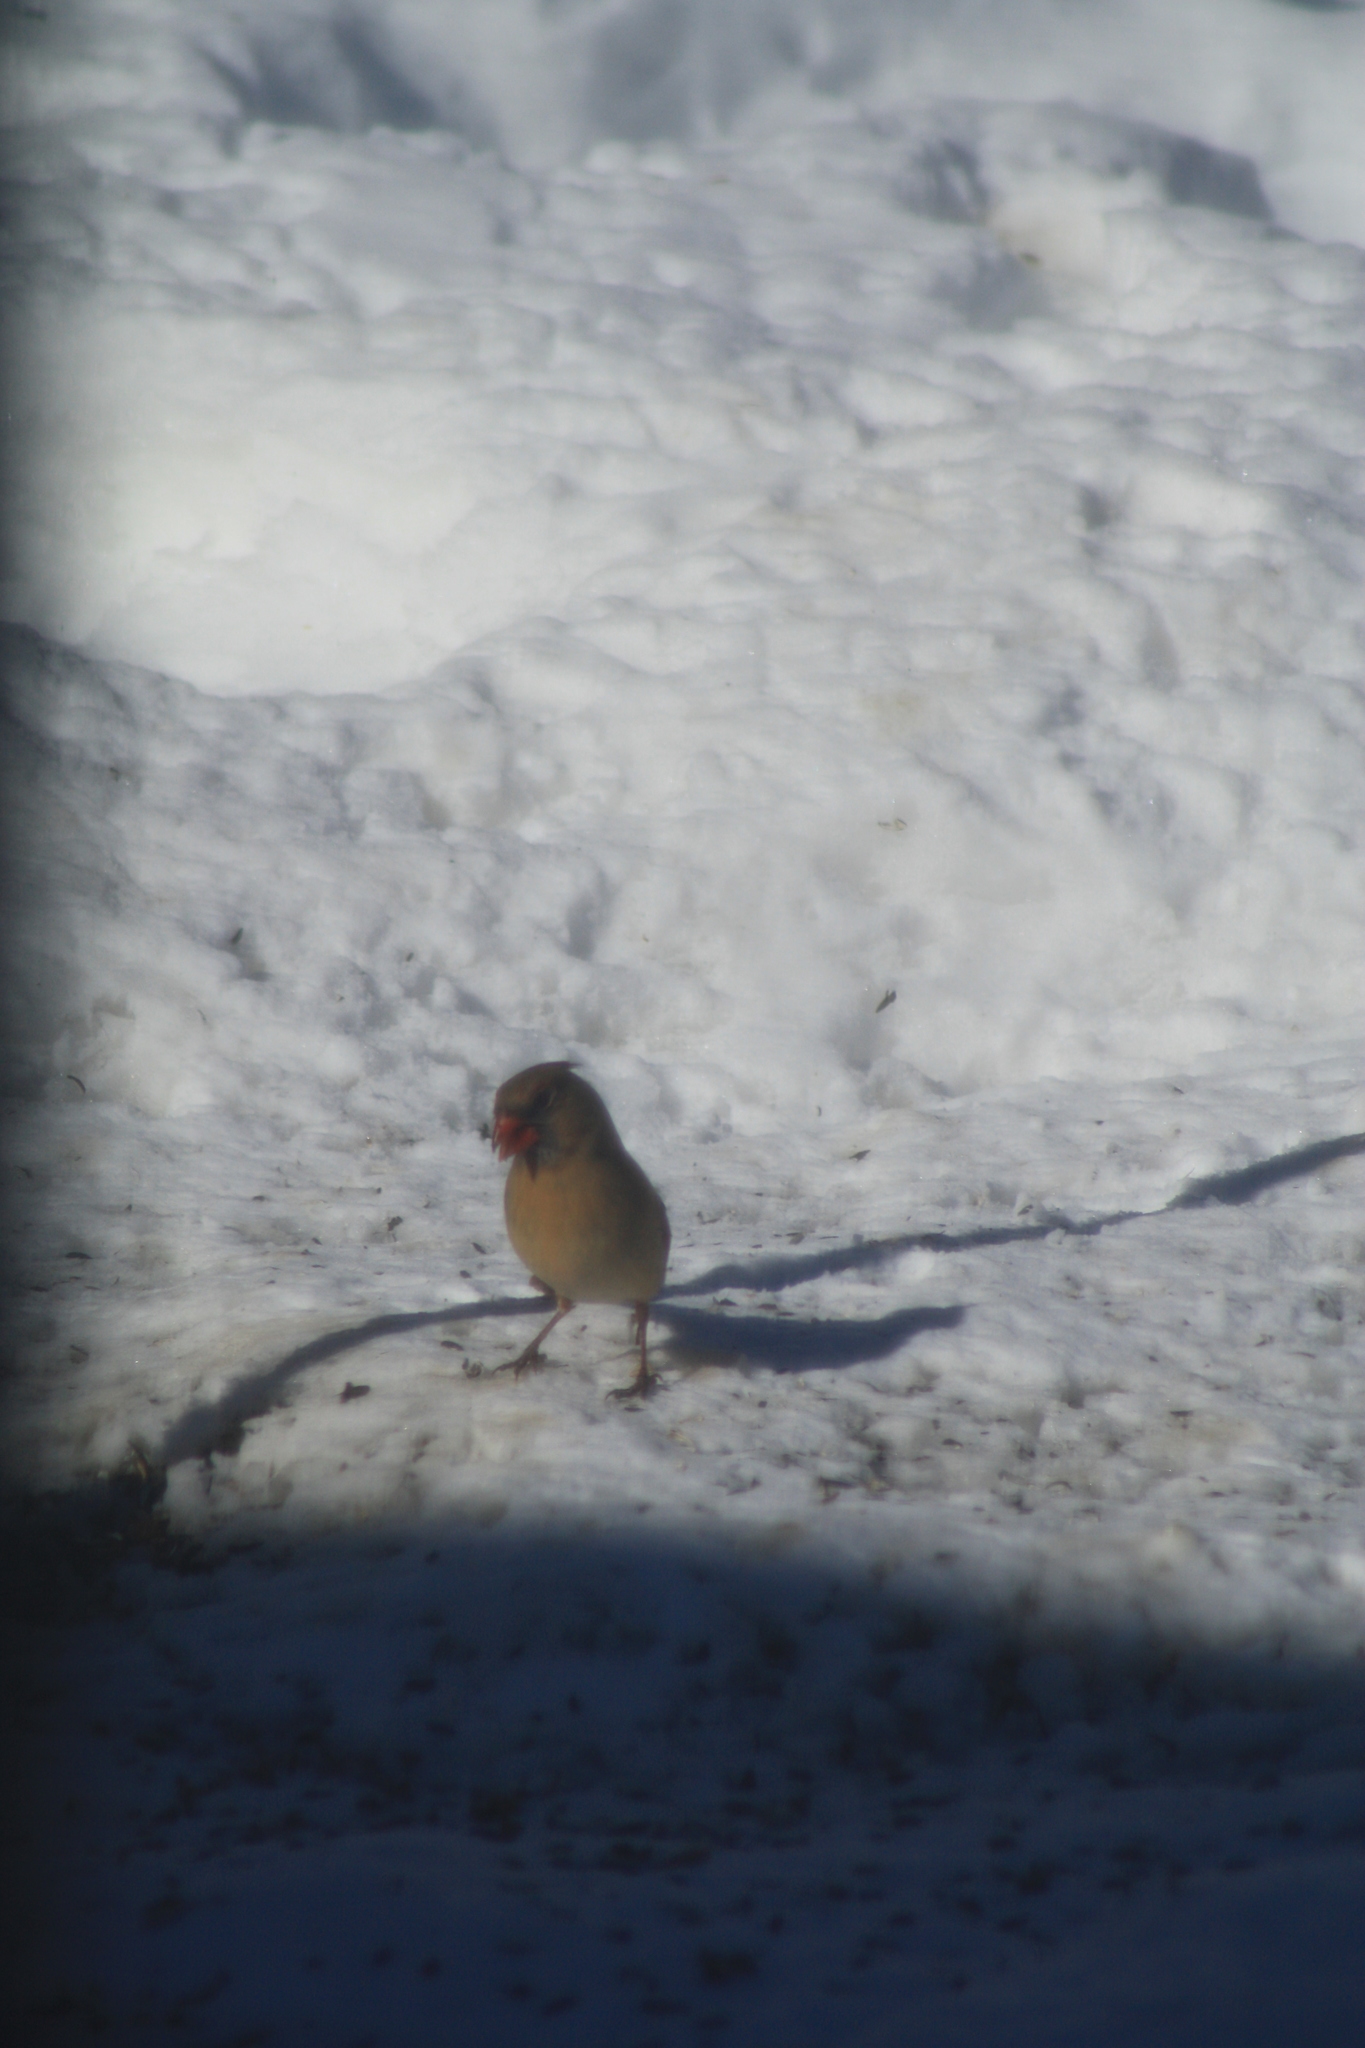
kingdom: Animalia
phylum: Chordata
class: Aves
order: Passeriformes
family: Cardinalidae
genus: Cardinalis
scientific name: Cardinalis cardinalis
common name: Northern cardinal
